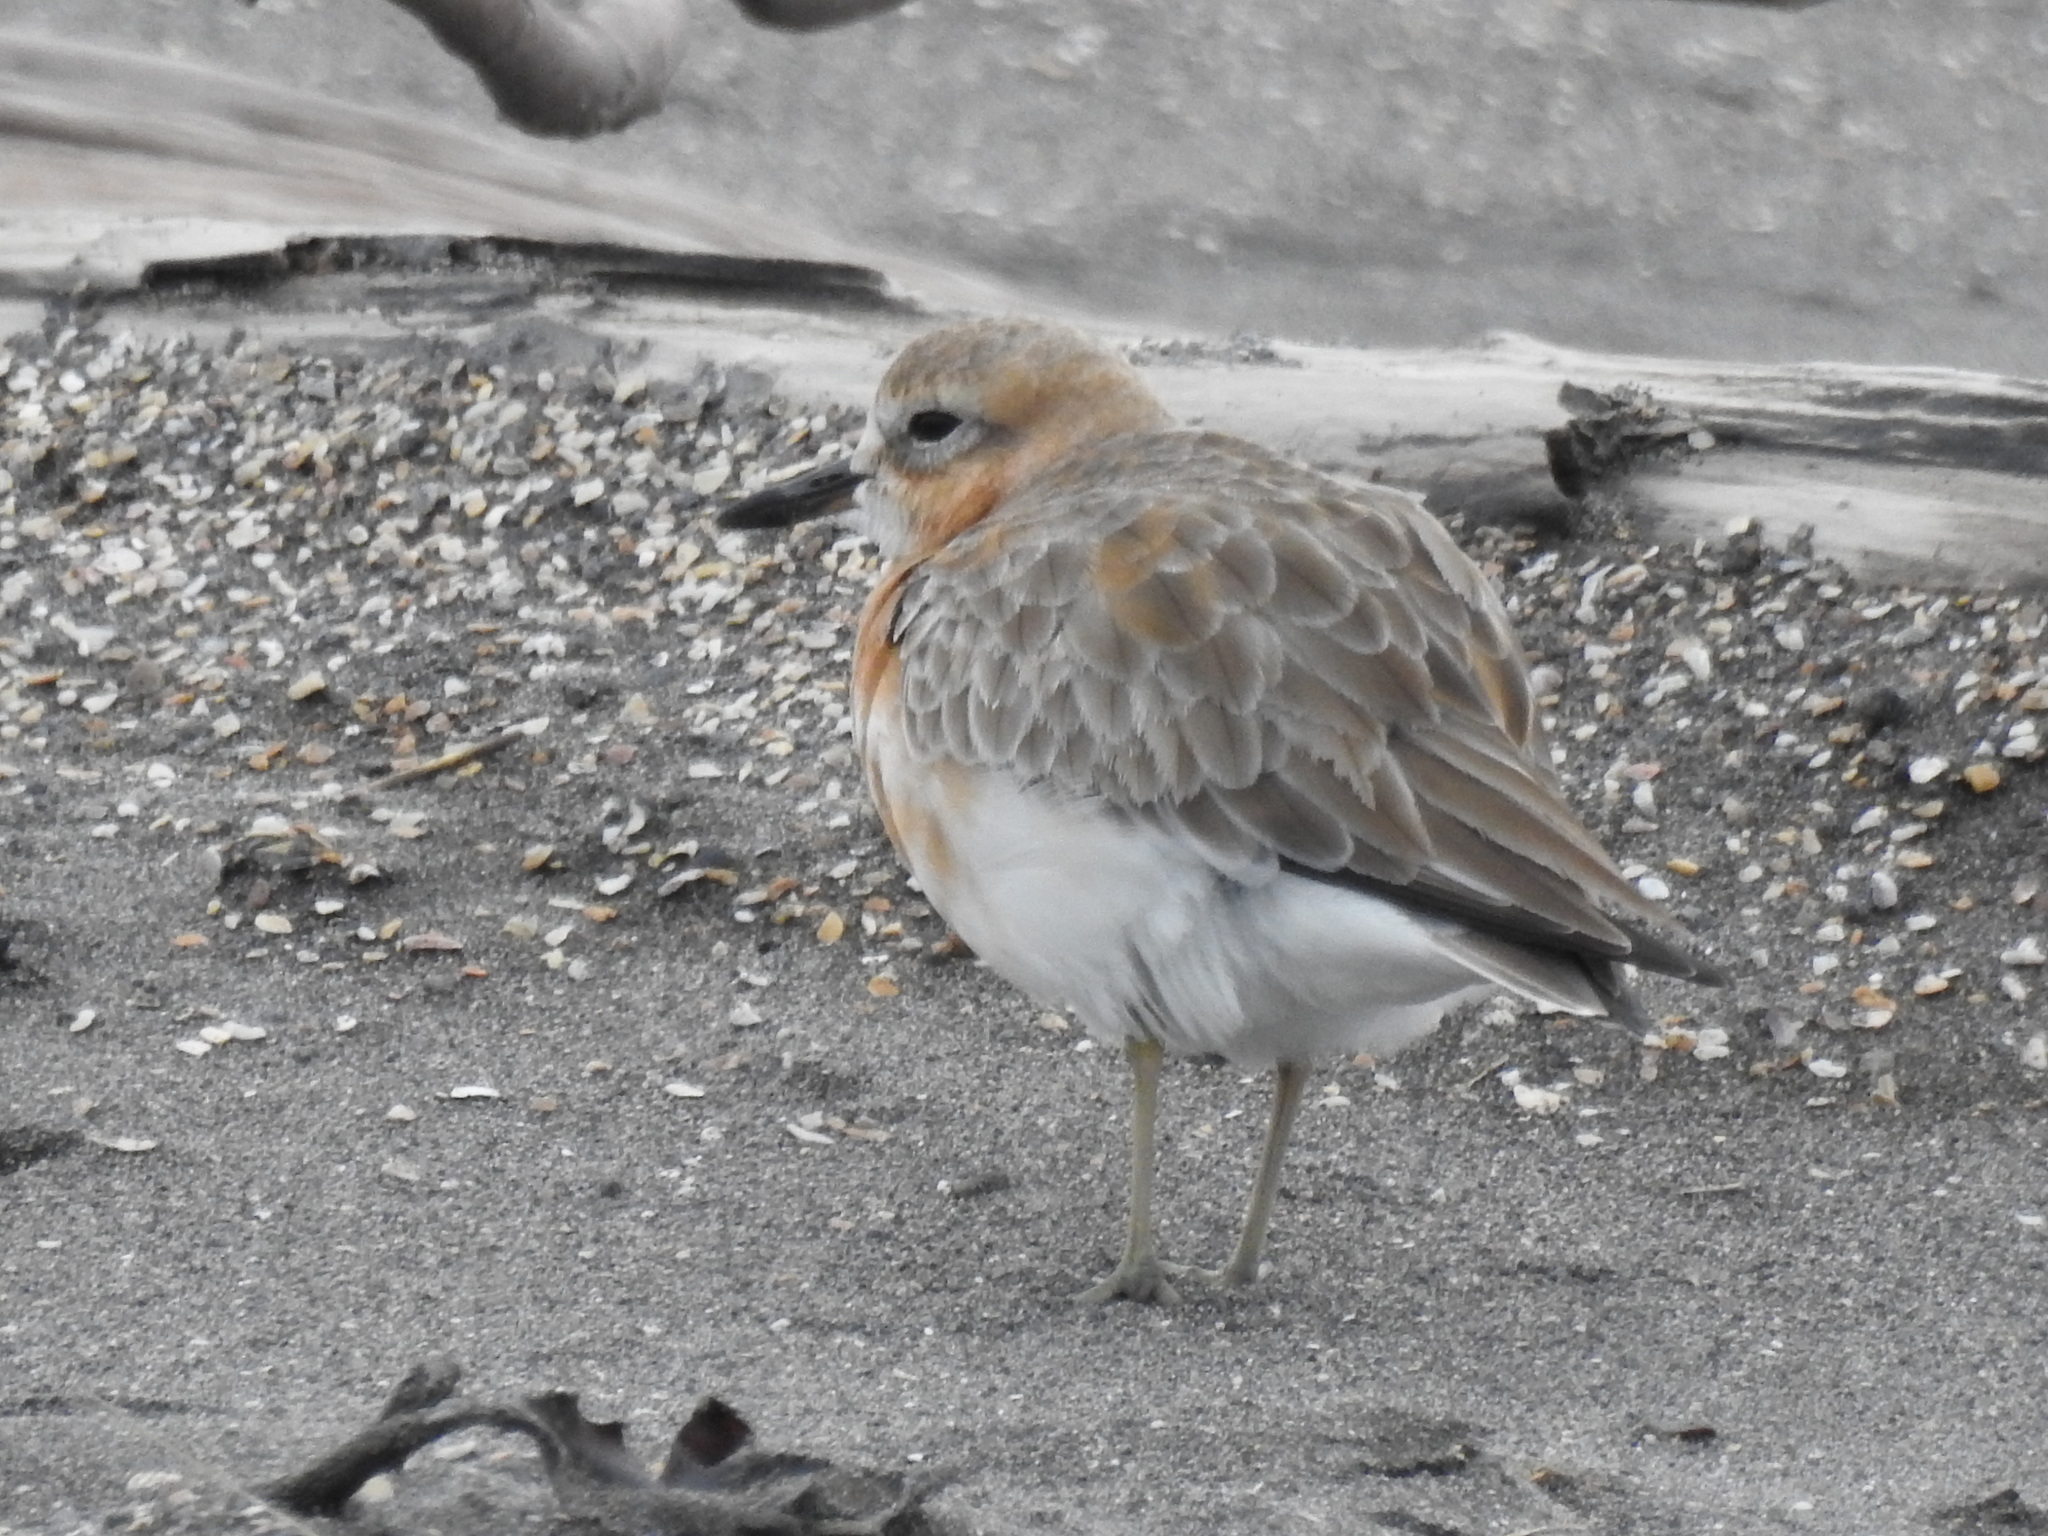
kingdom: Animalia
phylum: Chordata
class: Aves
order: Charadriiformes
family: Charadriidae
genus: Anarhynchus
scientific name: Anarhynchus
